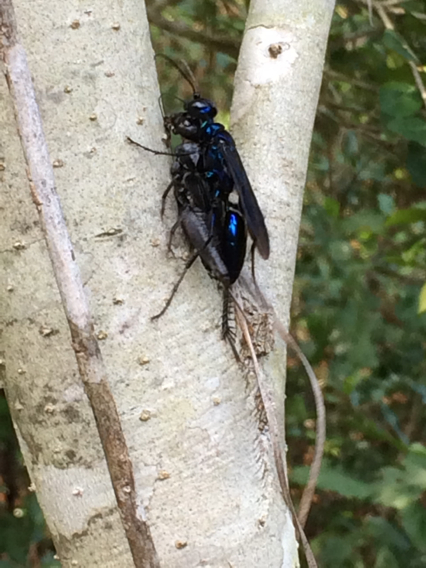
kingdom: Animalia
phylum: Arthropoda
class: Insecta
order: Hymenoptera
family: Sphecidae
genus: Chlorion
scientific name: Chlorion aerarium
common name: Steel-blue cricket hunter
